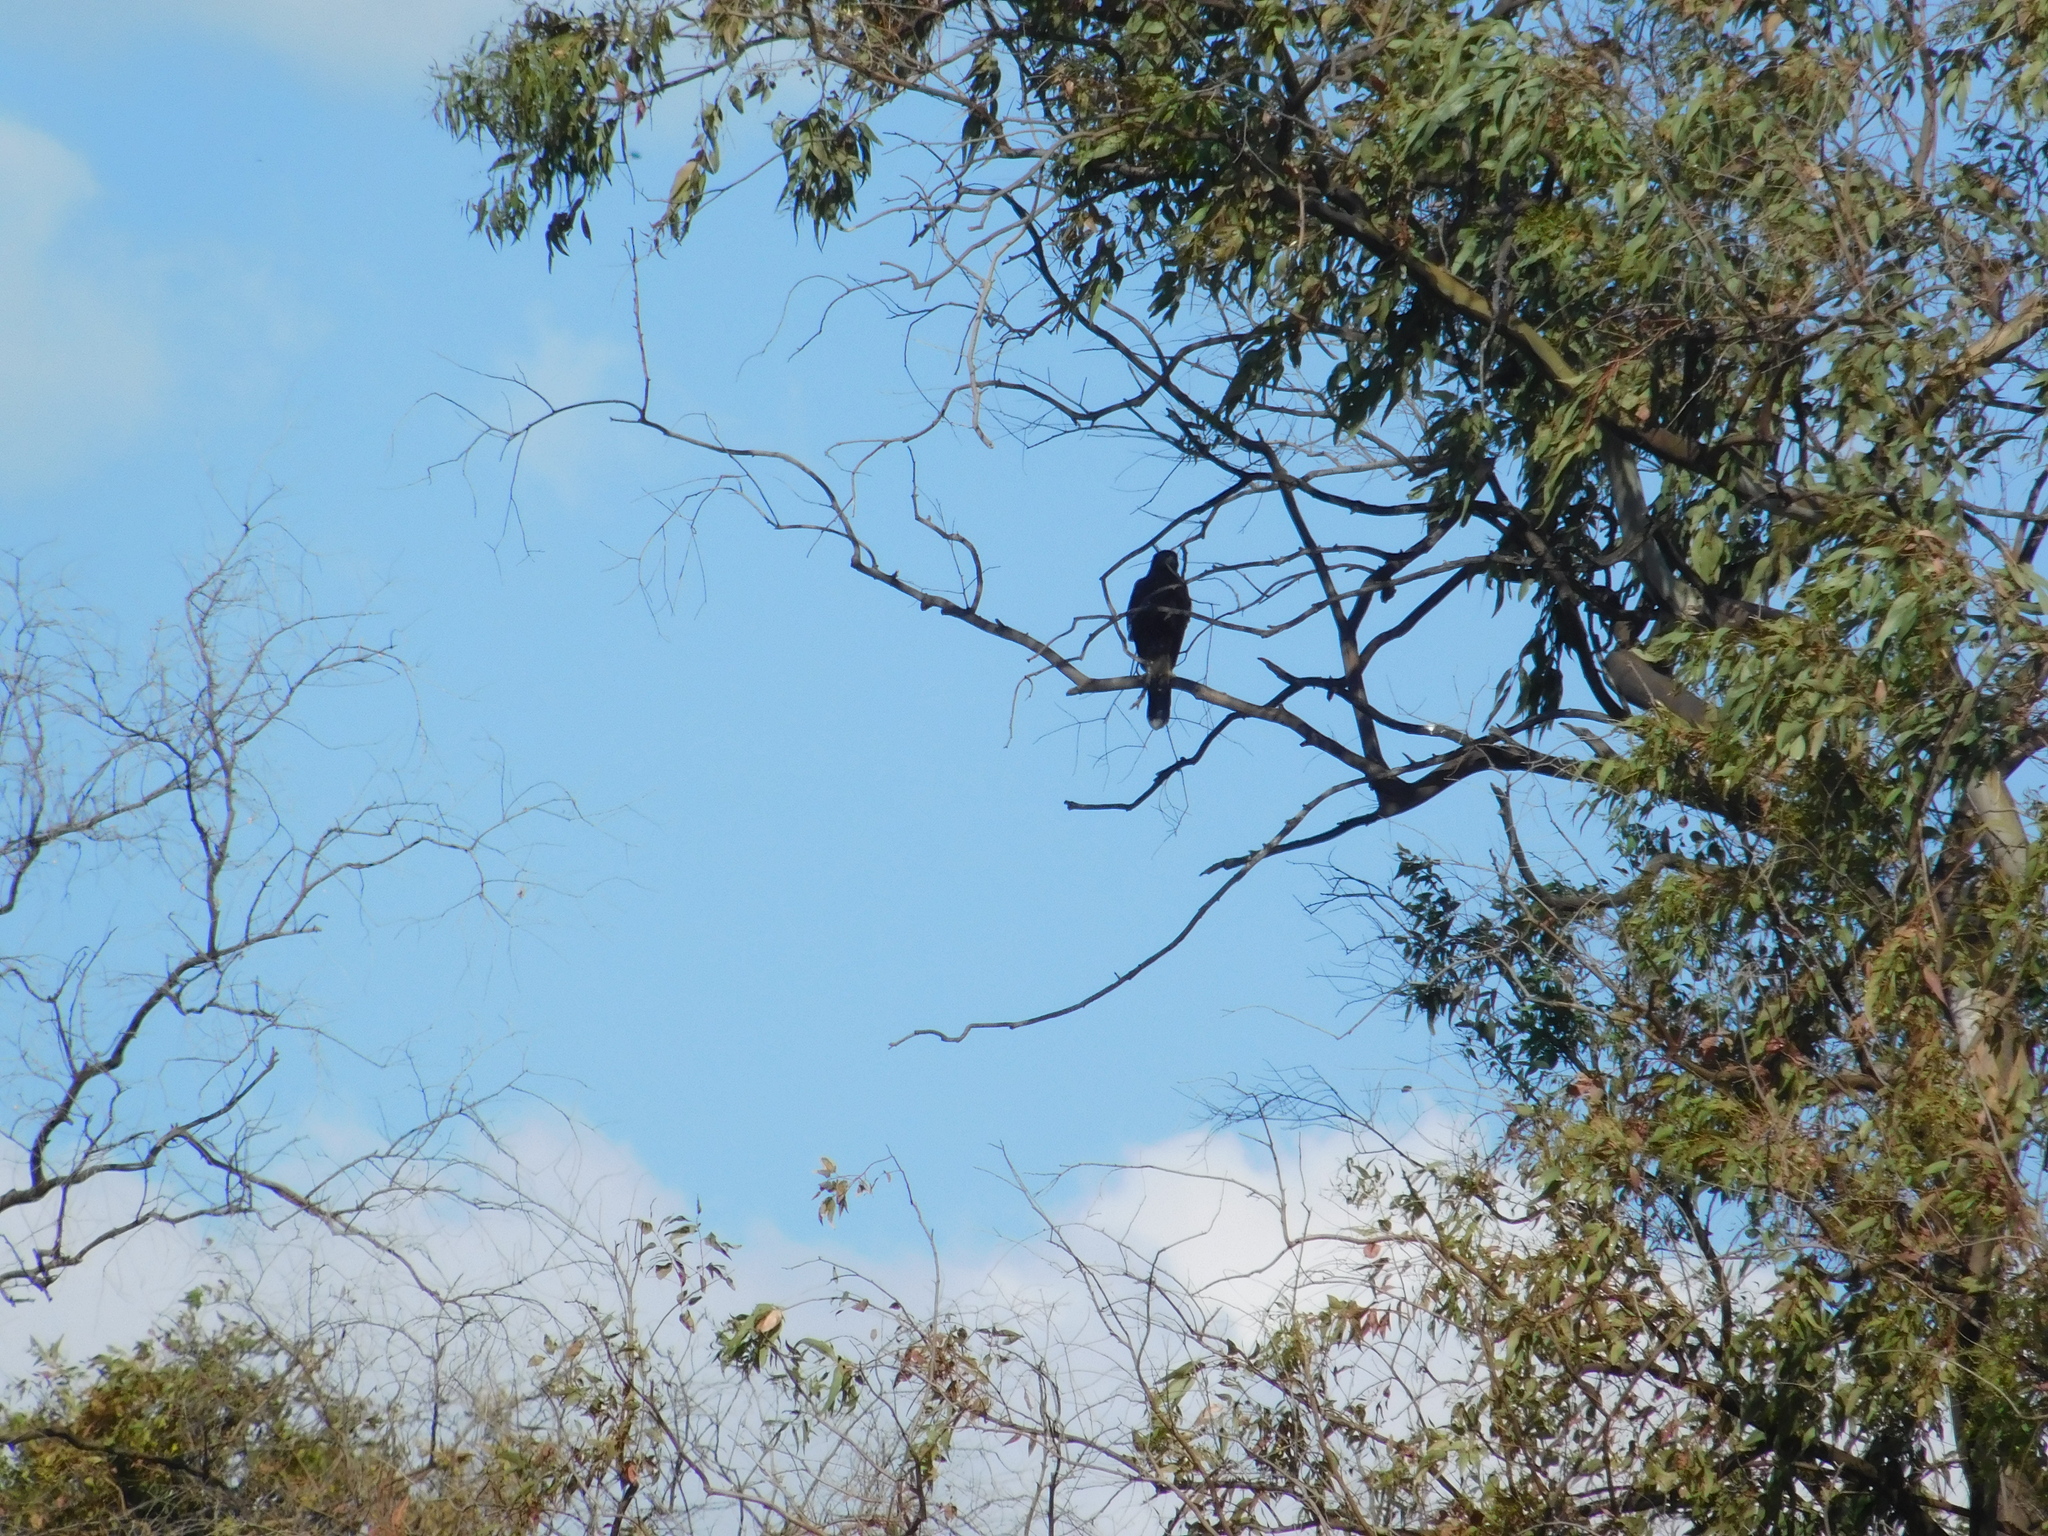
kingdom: Animalia
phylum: Chordata
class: Aves
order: Accipitriformes
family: Accipitridae
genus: Parabuteo
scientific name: Parabuteo unicinctus
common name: Harris's hawk
